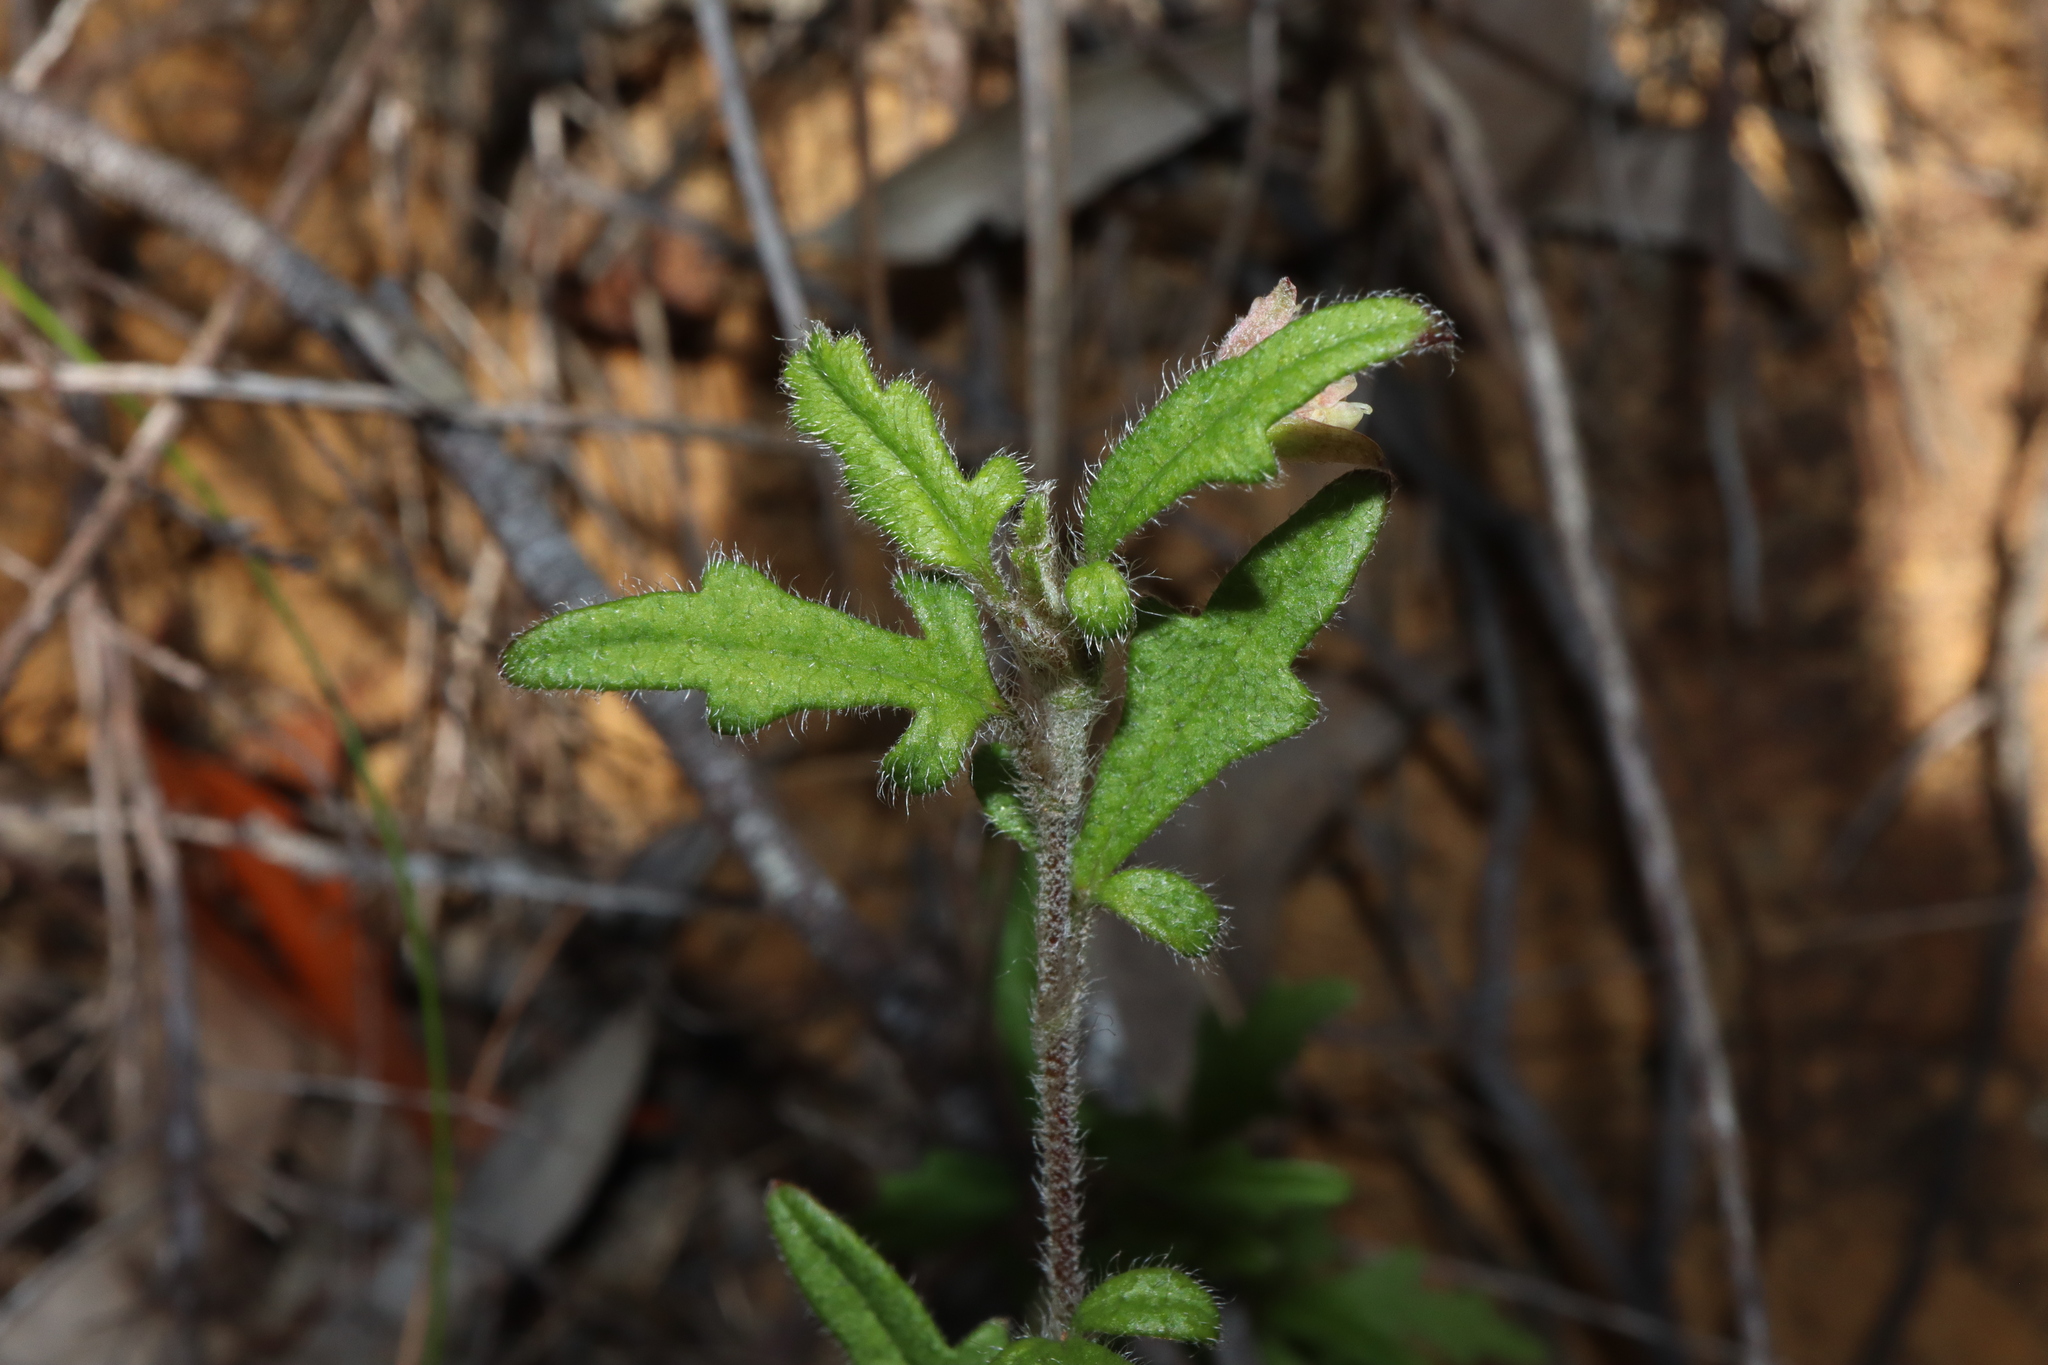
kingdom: Plantae
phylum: Tracheophyta
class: Magnoliopsida
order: Apiales
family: Apiaceae
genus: Xanthosia
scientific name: Xanthosia pilosa
